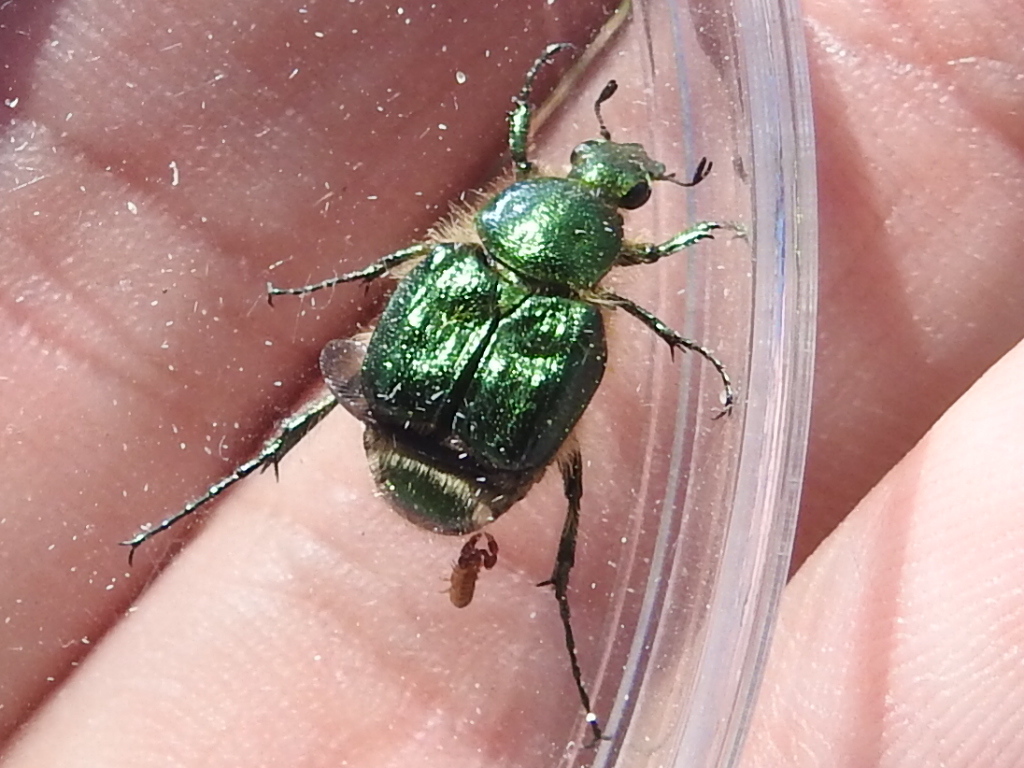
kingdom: Animalia
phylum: Arthropoda
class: Insecta
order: Coleoptera
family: Scarabaeidae
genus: Trichiotinus
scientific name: Trichiotinus lunulatus
